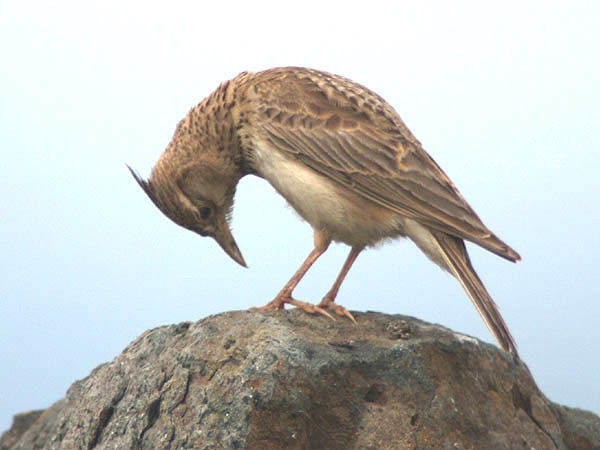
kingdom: Animalia
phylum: Chordata
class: Aves
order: Passeriformes
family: Alaudidae
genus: Galerida
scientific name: Galerida cristata
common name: Crested lark
